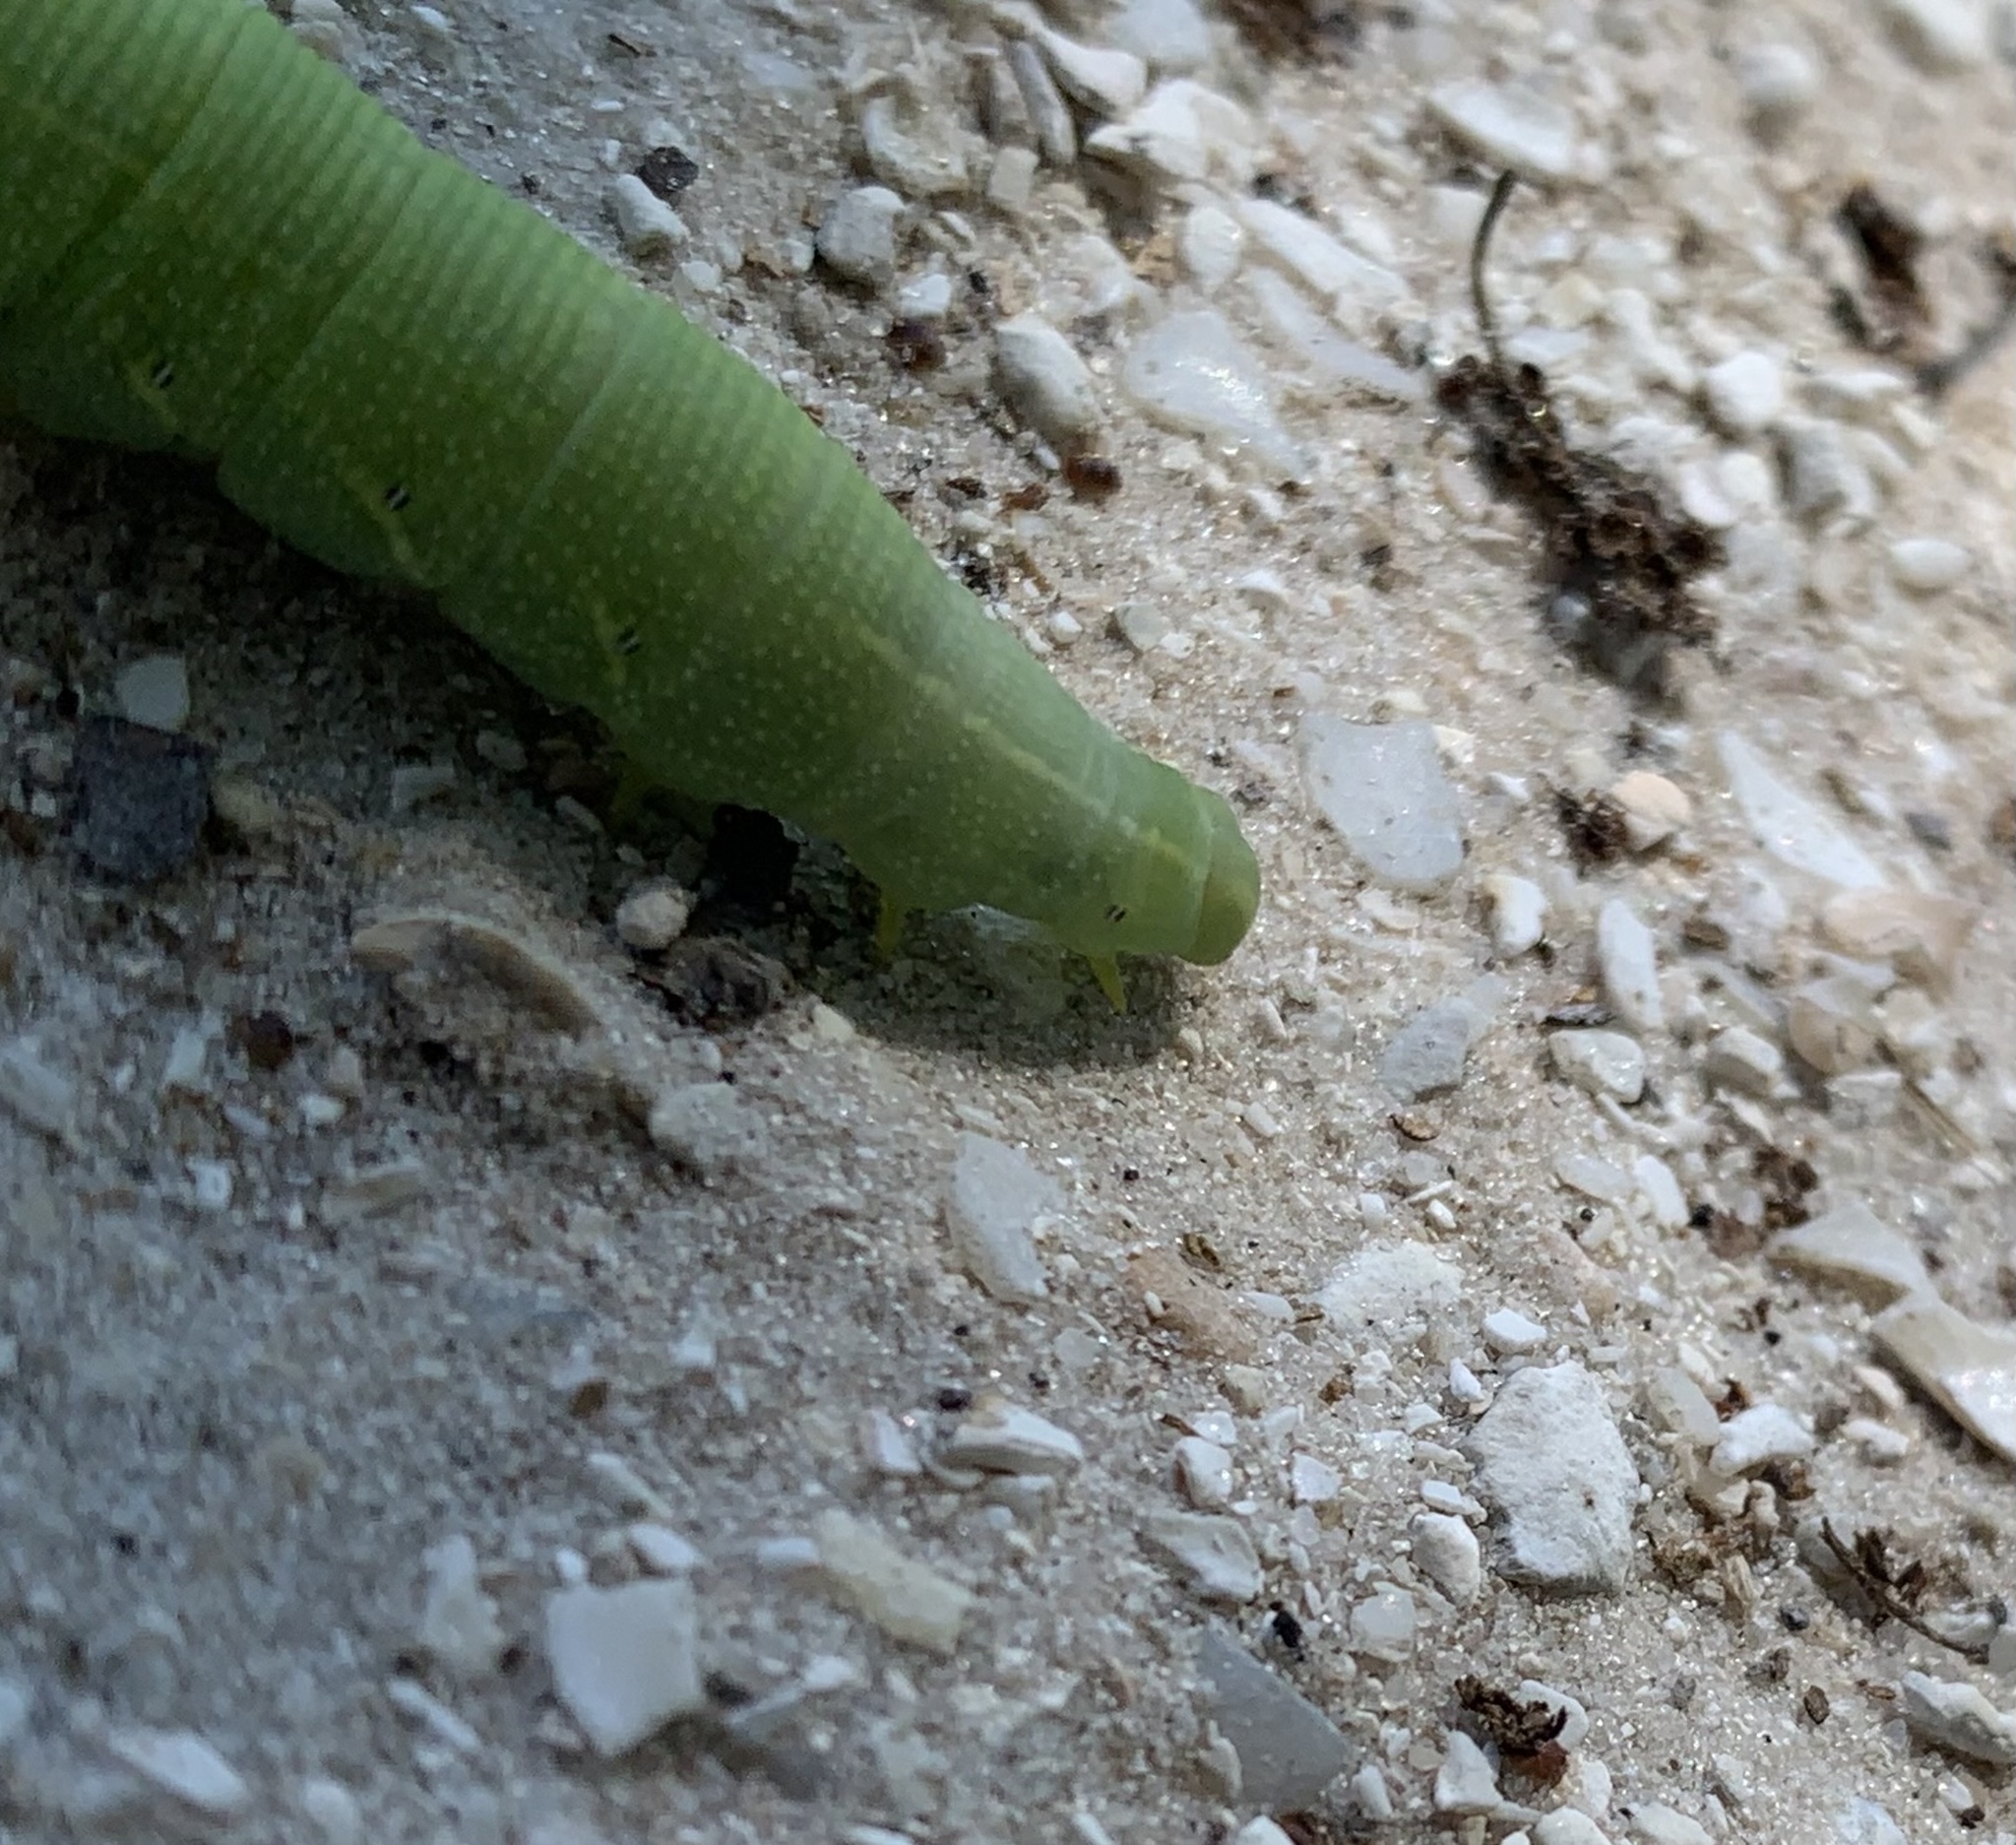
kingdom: Animalia
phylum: Arthropoda
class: Insecta
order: Lepidoptera
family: Sphingidae
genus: Deidamia
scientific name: Deidamia inscriptum
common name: Lettered sphinx
